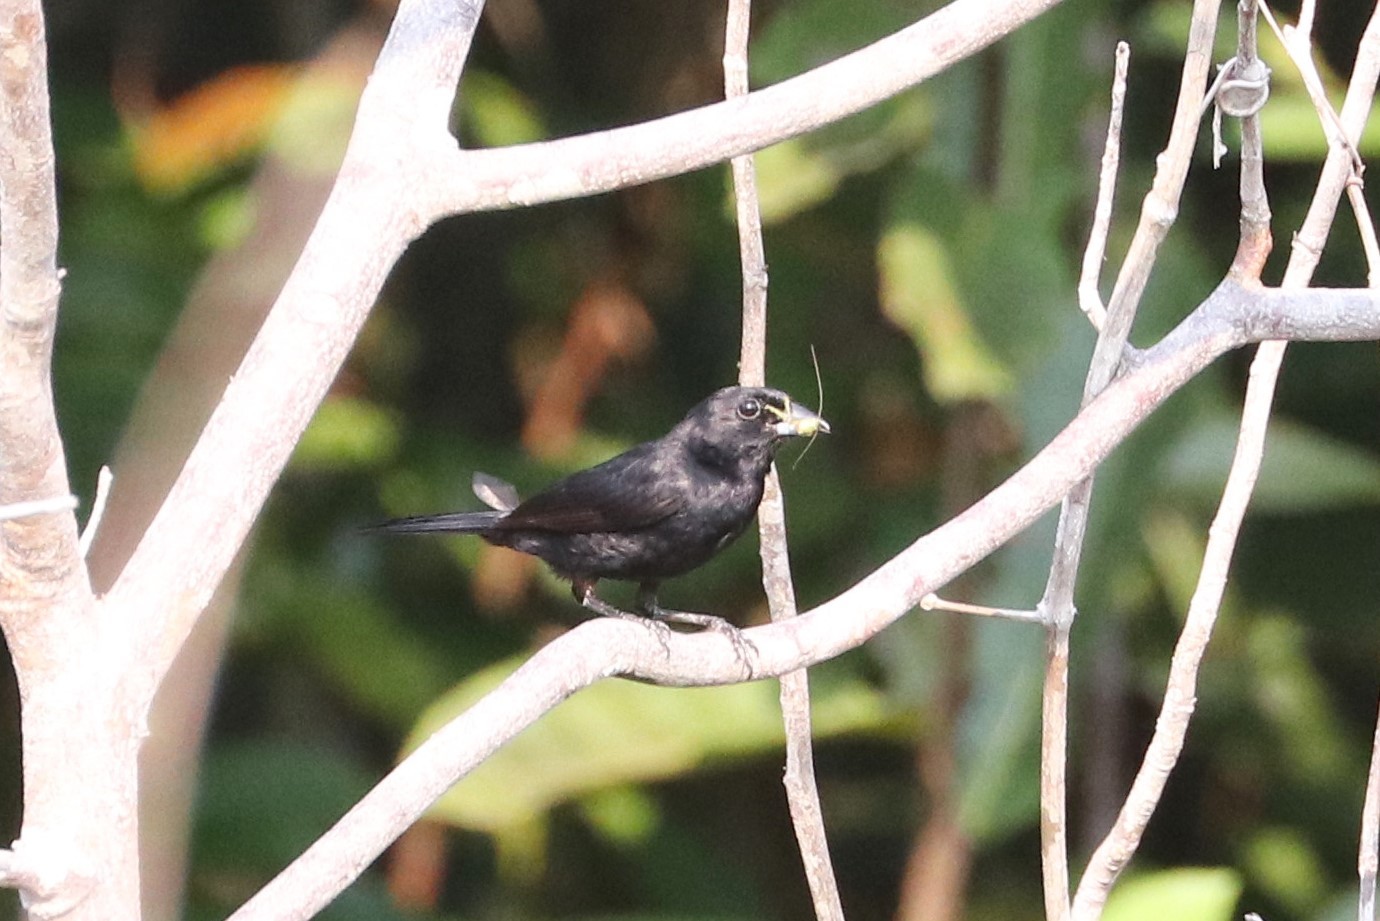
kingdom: Animalia
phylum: Chordata
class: Aves
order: Passeriformes
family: Thraupidae
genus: Tachyphonus
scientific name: Tachyphonus phoenicius
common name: Red-shouldered tanager
